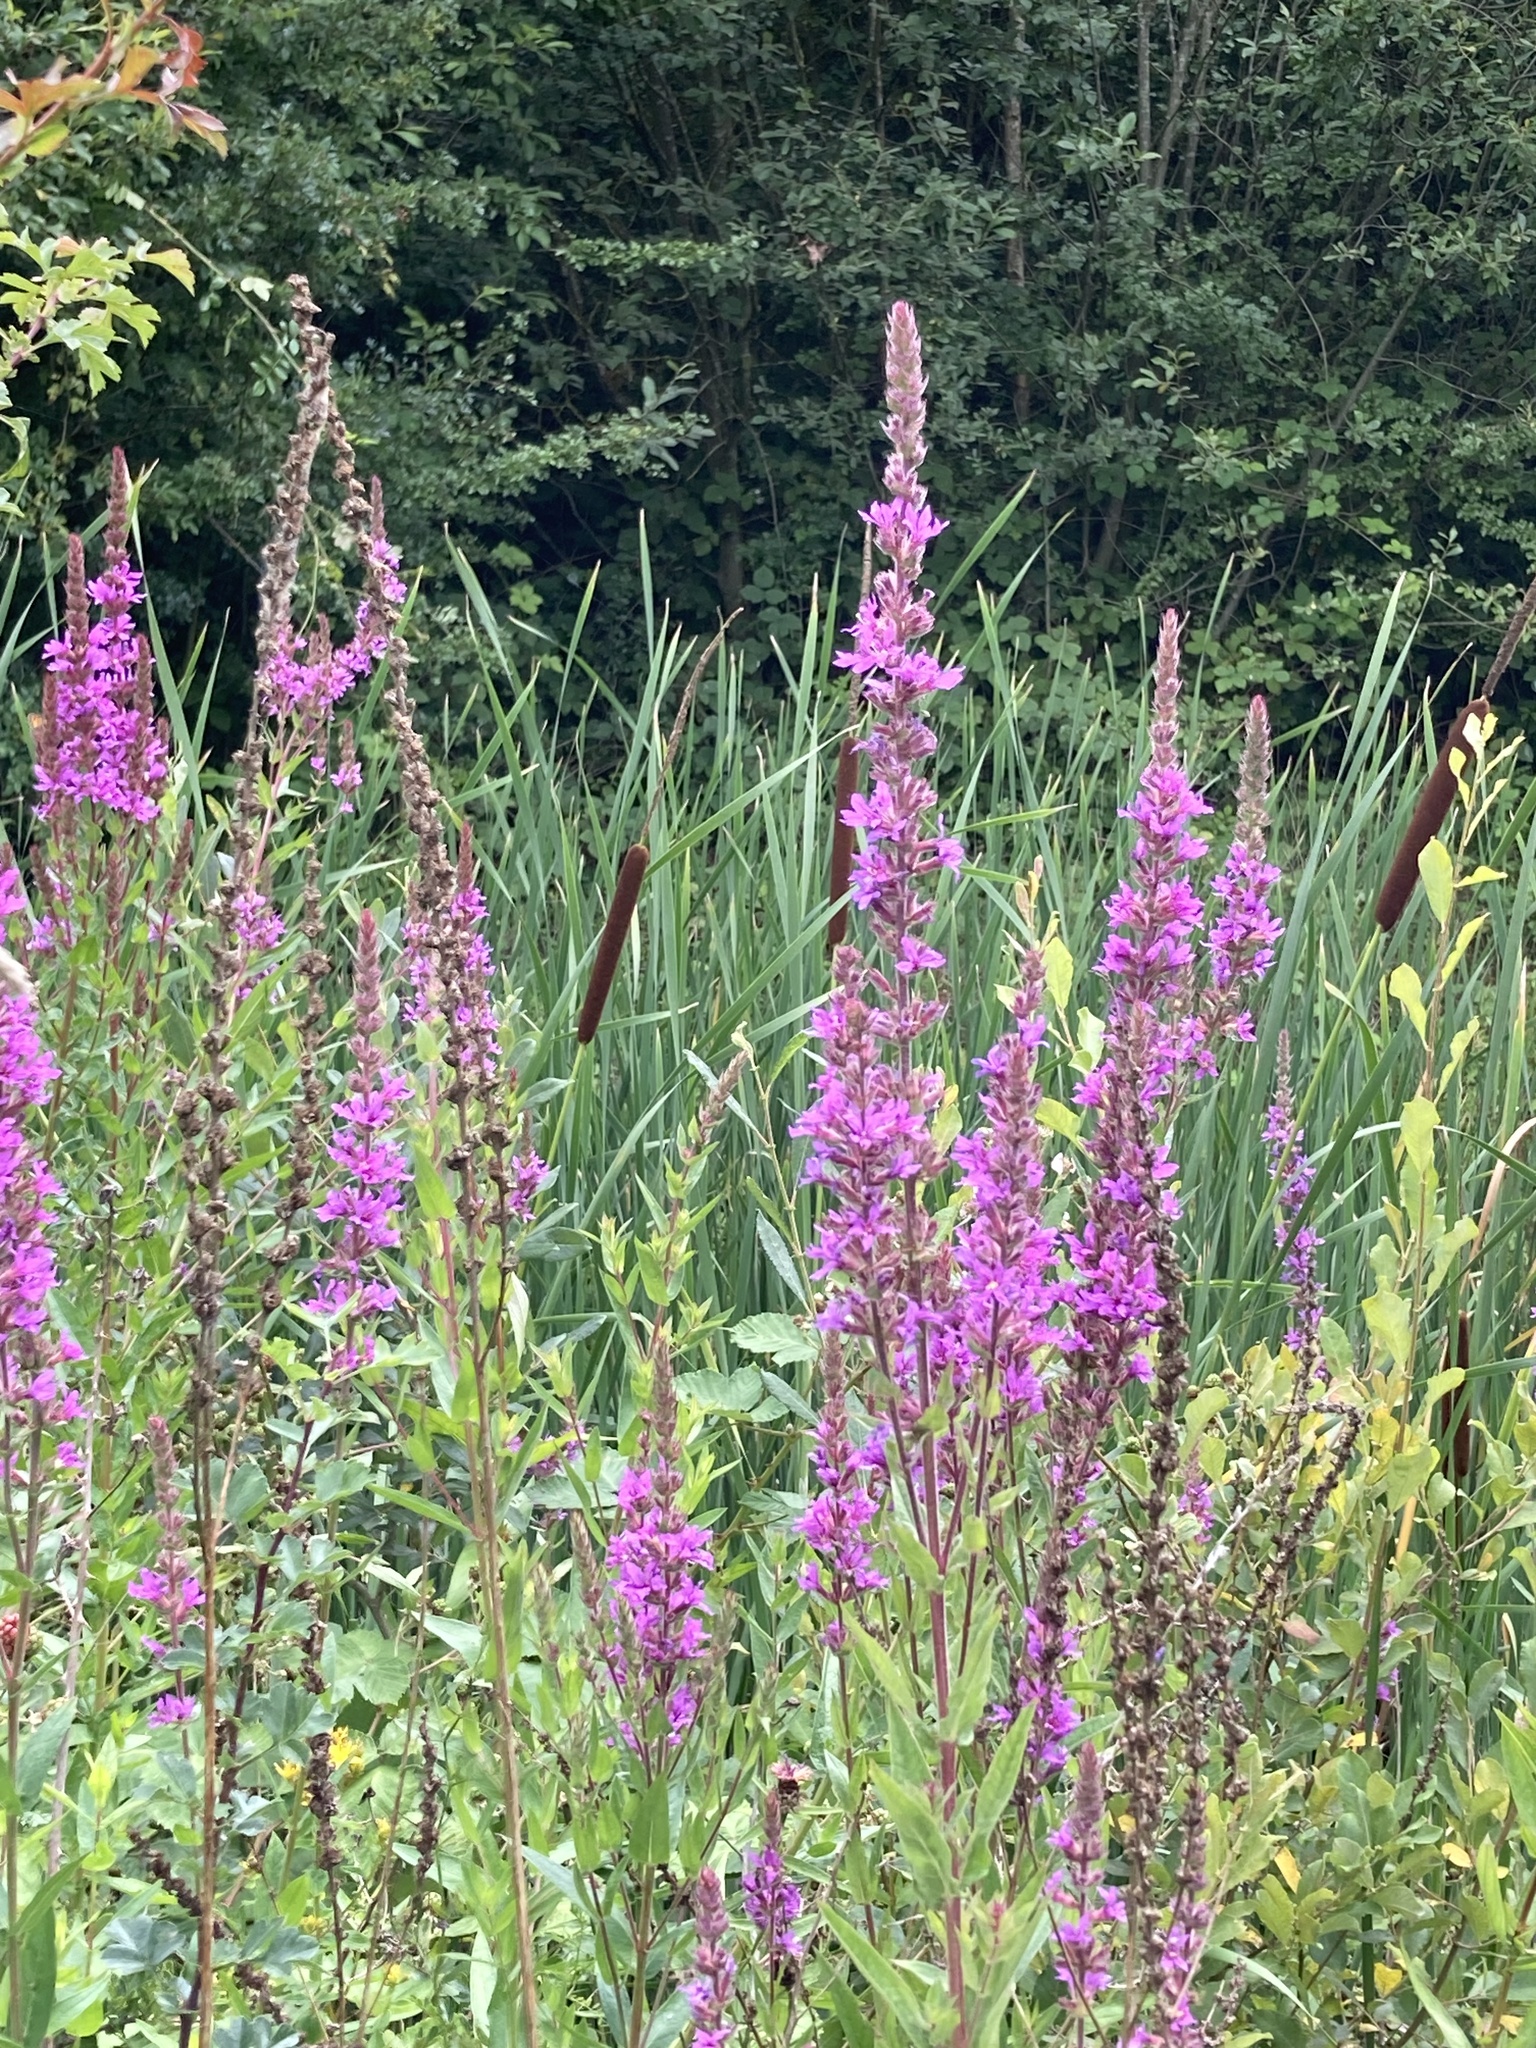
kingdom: Plantae
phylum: Tracheophyta
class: Magnoliopsida
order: Myrtales
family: Lythraceae
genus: Lythrum
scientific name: Lythrum salicaria
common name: Purple loosestrife
